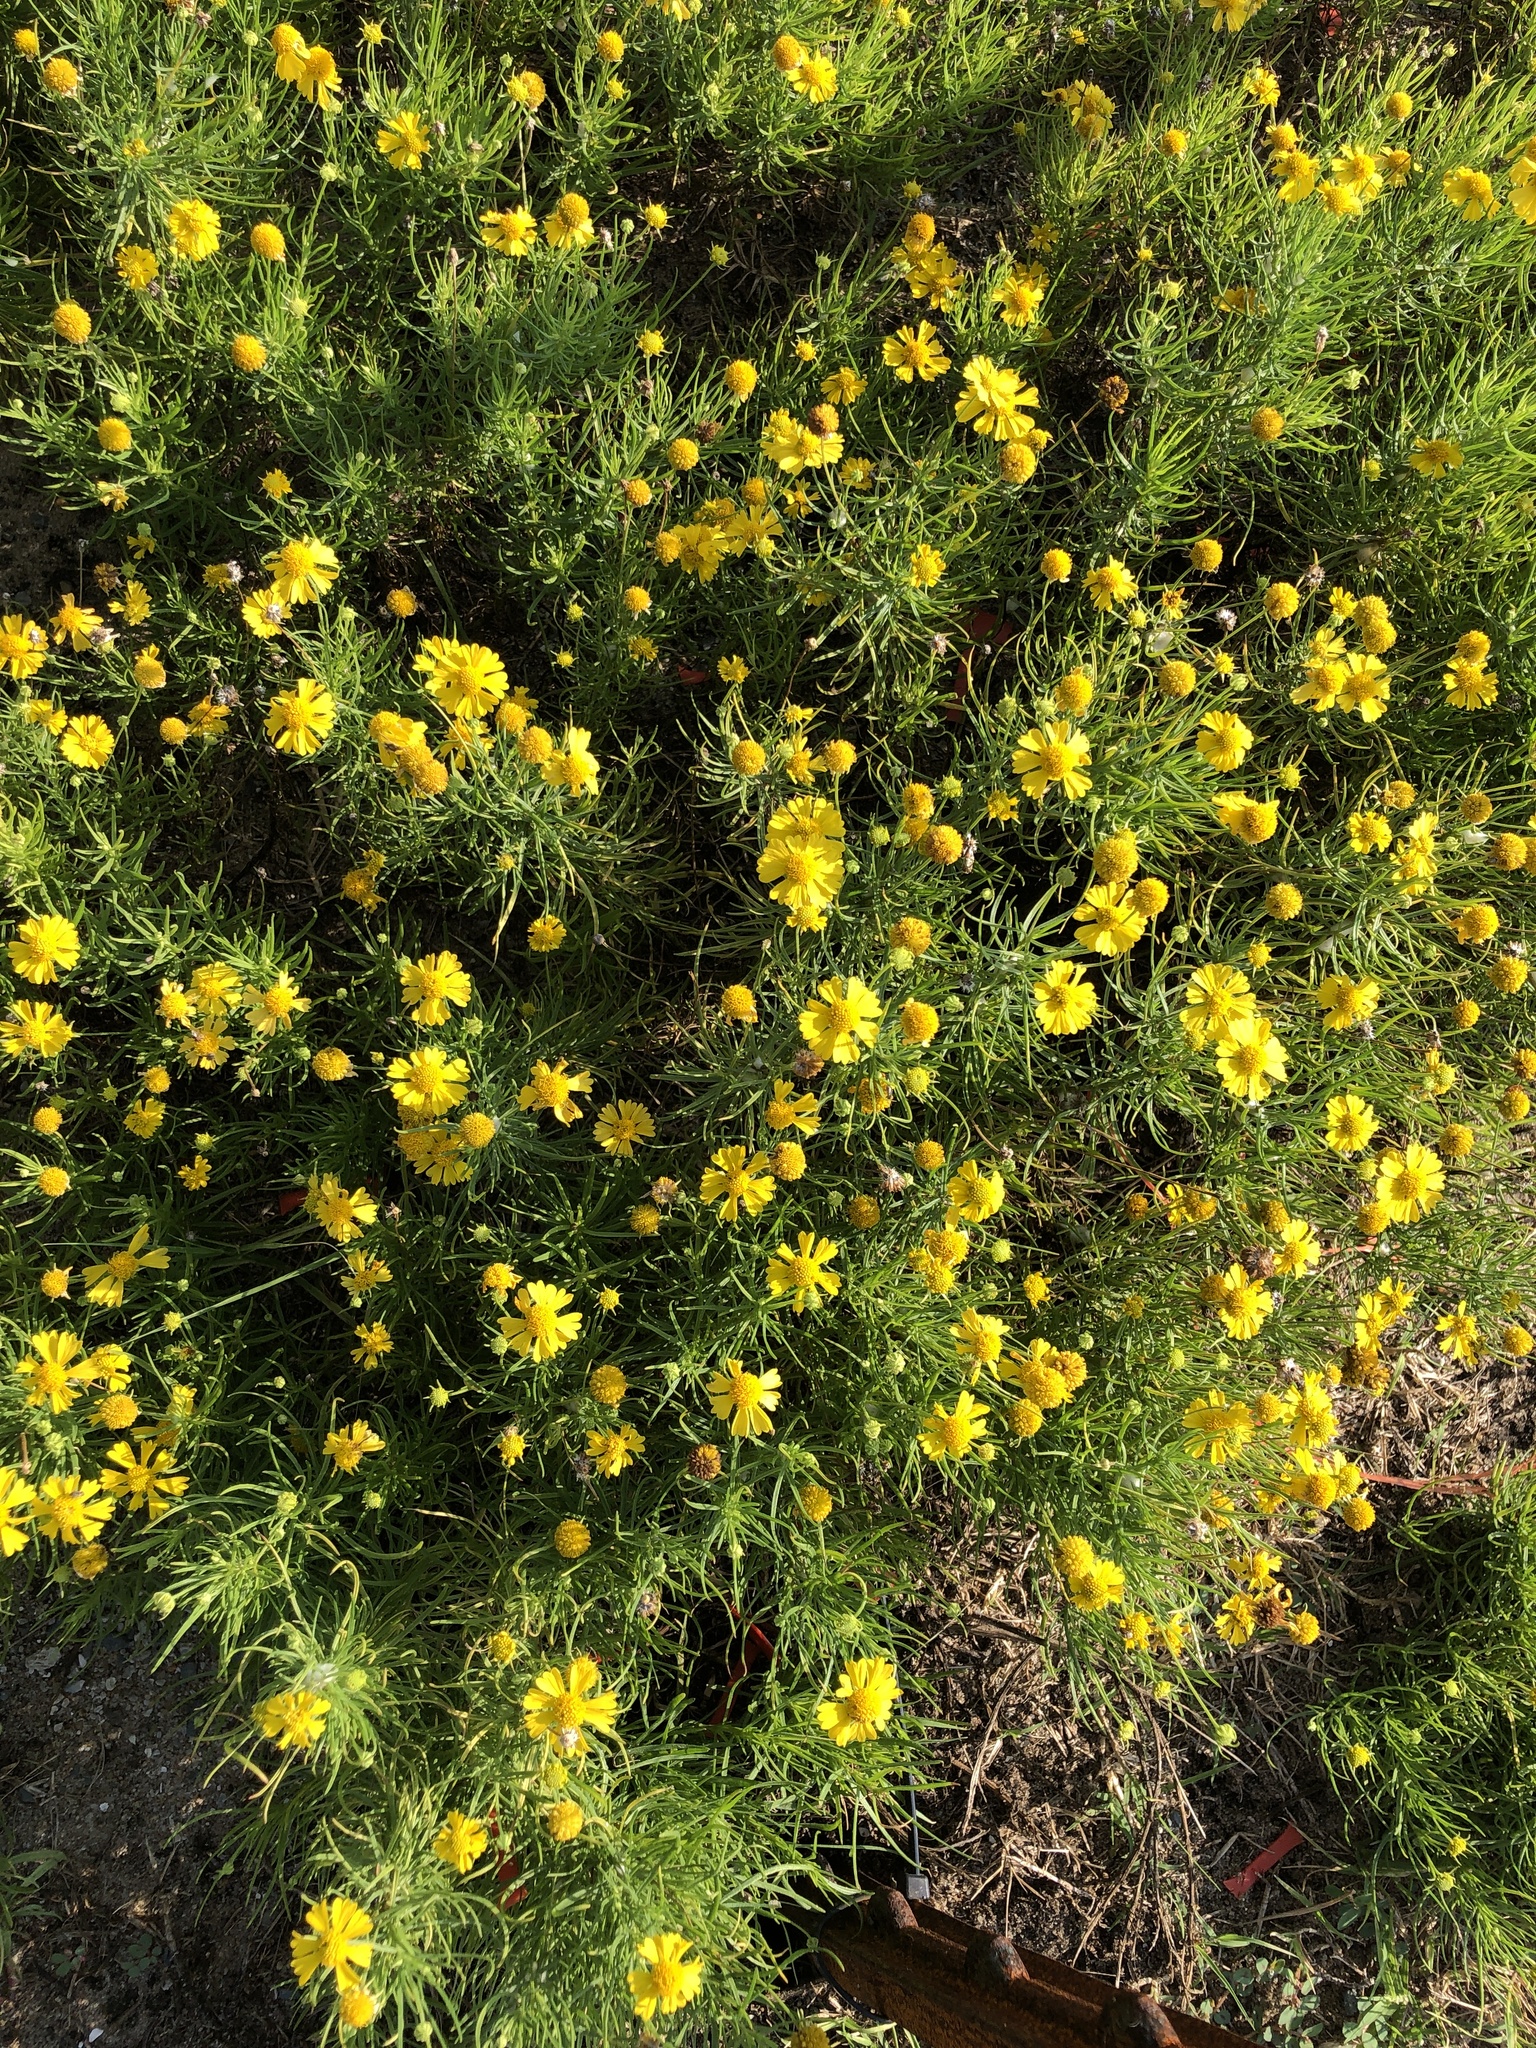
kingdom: Plantae
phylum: Tracheophyta
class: Magnoliopsida
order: Asterales
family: Asteraceae
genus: Helenium
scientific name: Helenium amarum
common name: Bitter sneezeweed
